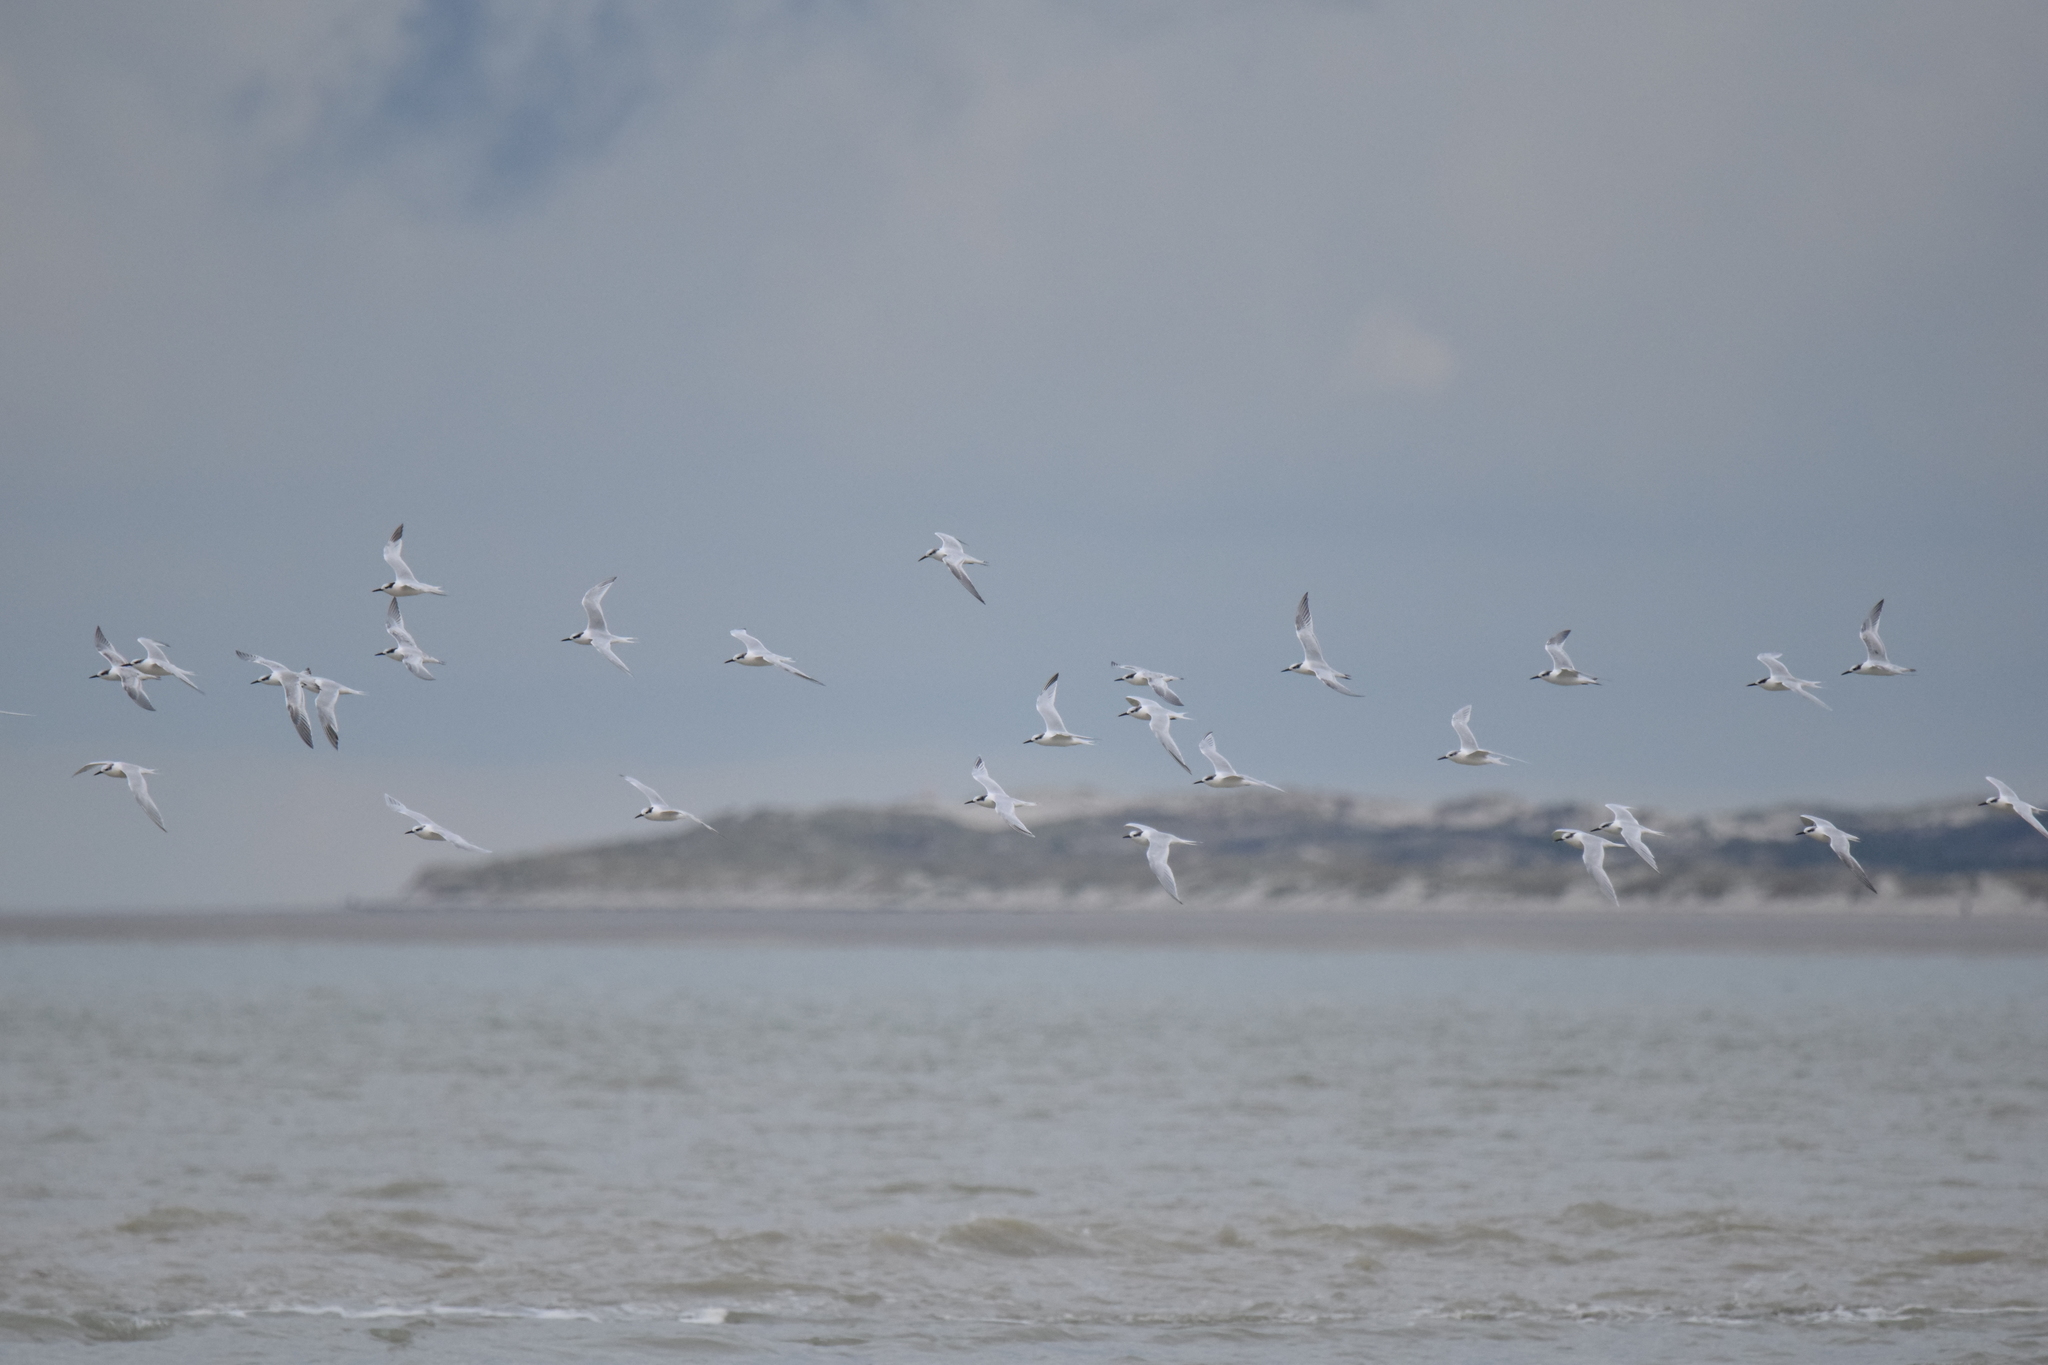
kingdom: Animalia
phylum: Chordata
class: Aves
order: Charadriiformes
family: Laridae
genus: Thalasseus
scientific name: Thalasseus sandvicensis
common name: Sandwich tern
